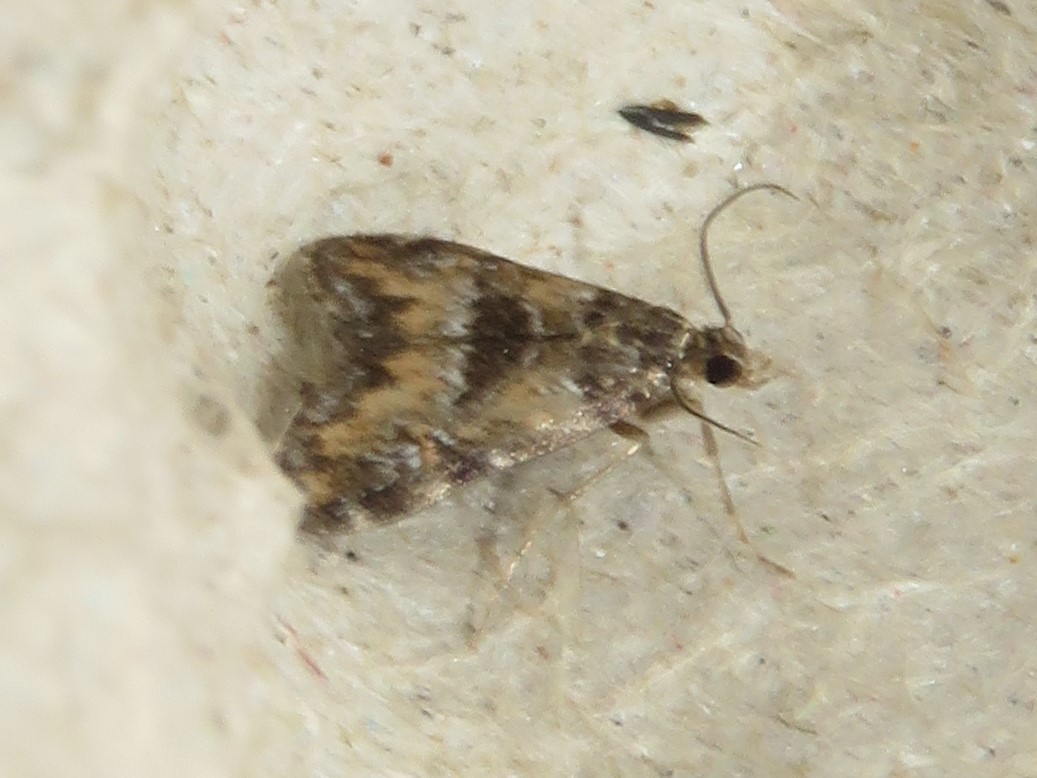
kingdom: Animalia
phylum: Arthropoda
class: Insecta
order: Lepidoptera
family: Crambidae
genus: Elophila
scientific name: Elophila obliteralis
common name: Waterlily leafcutter moth
